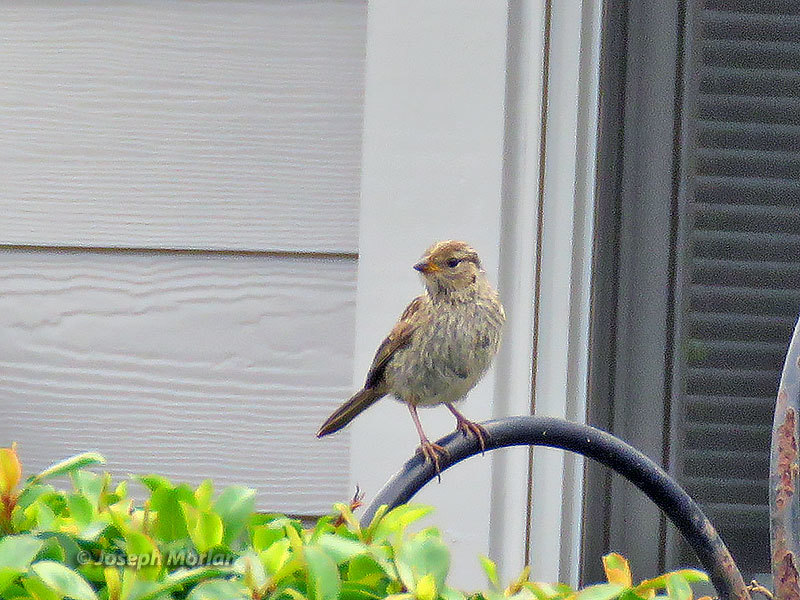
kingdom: Animalia
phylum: Chordata
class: Aves
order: Passeriformes
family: Passerellidae
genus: Zonotrichia
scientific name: Zonotrichia leucophrys
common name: White-crowned sparrow
